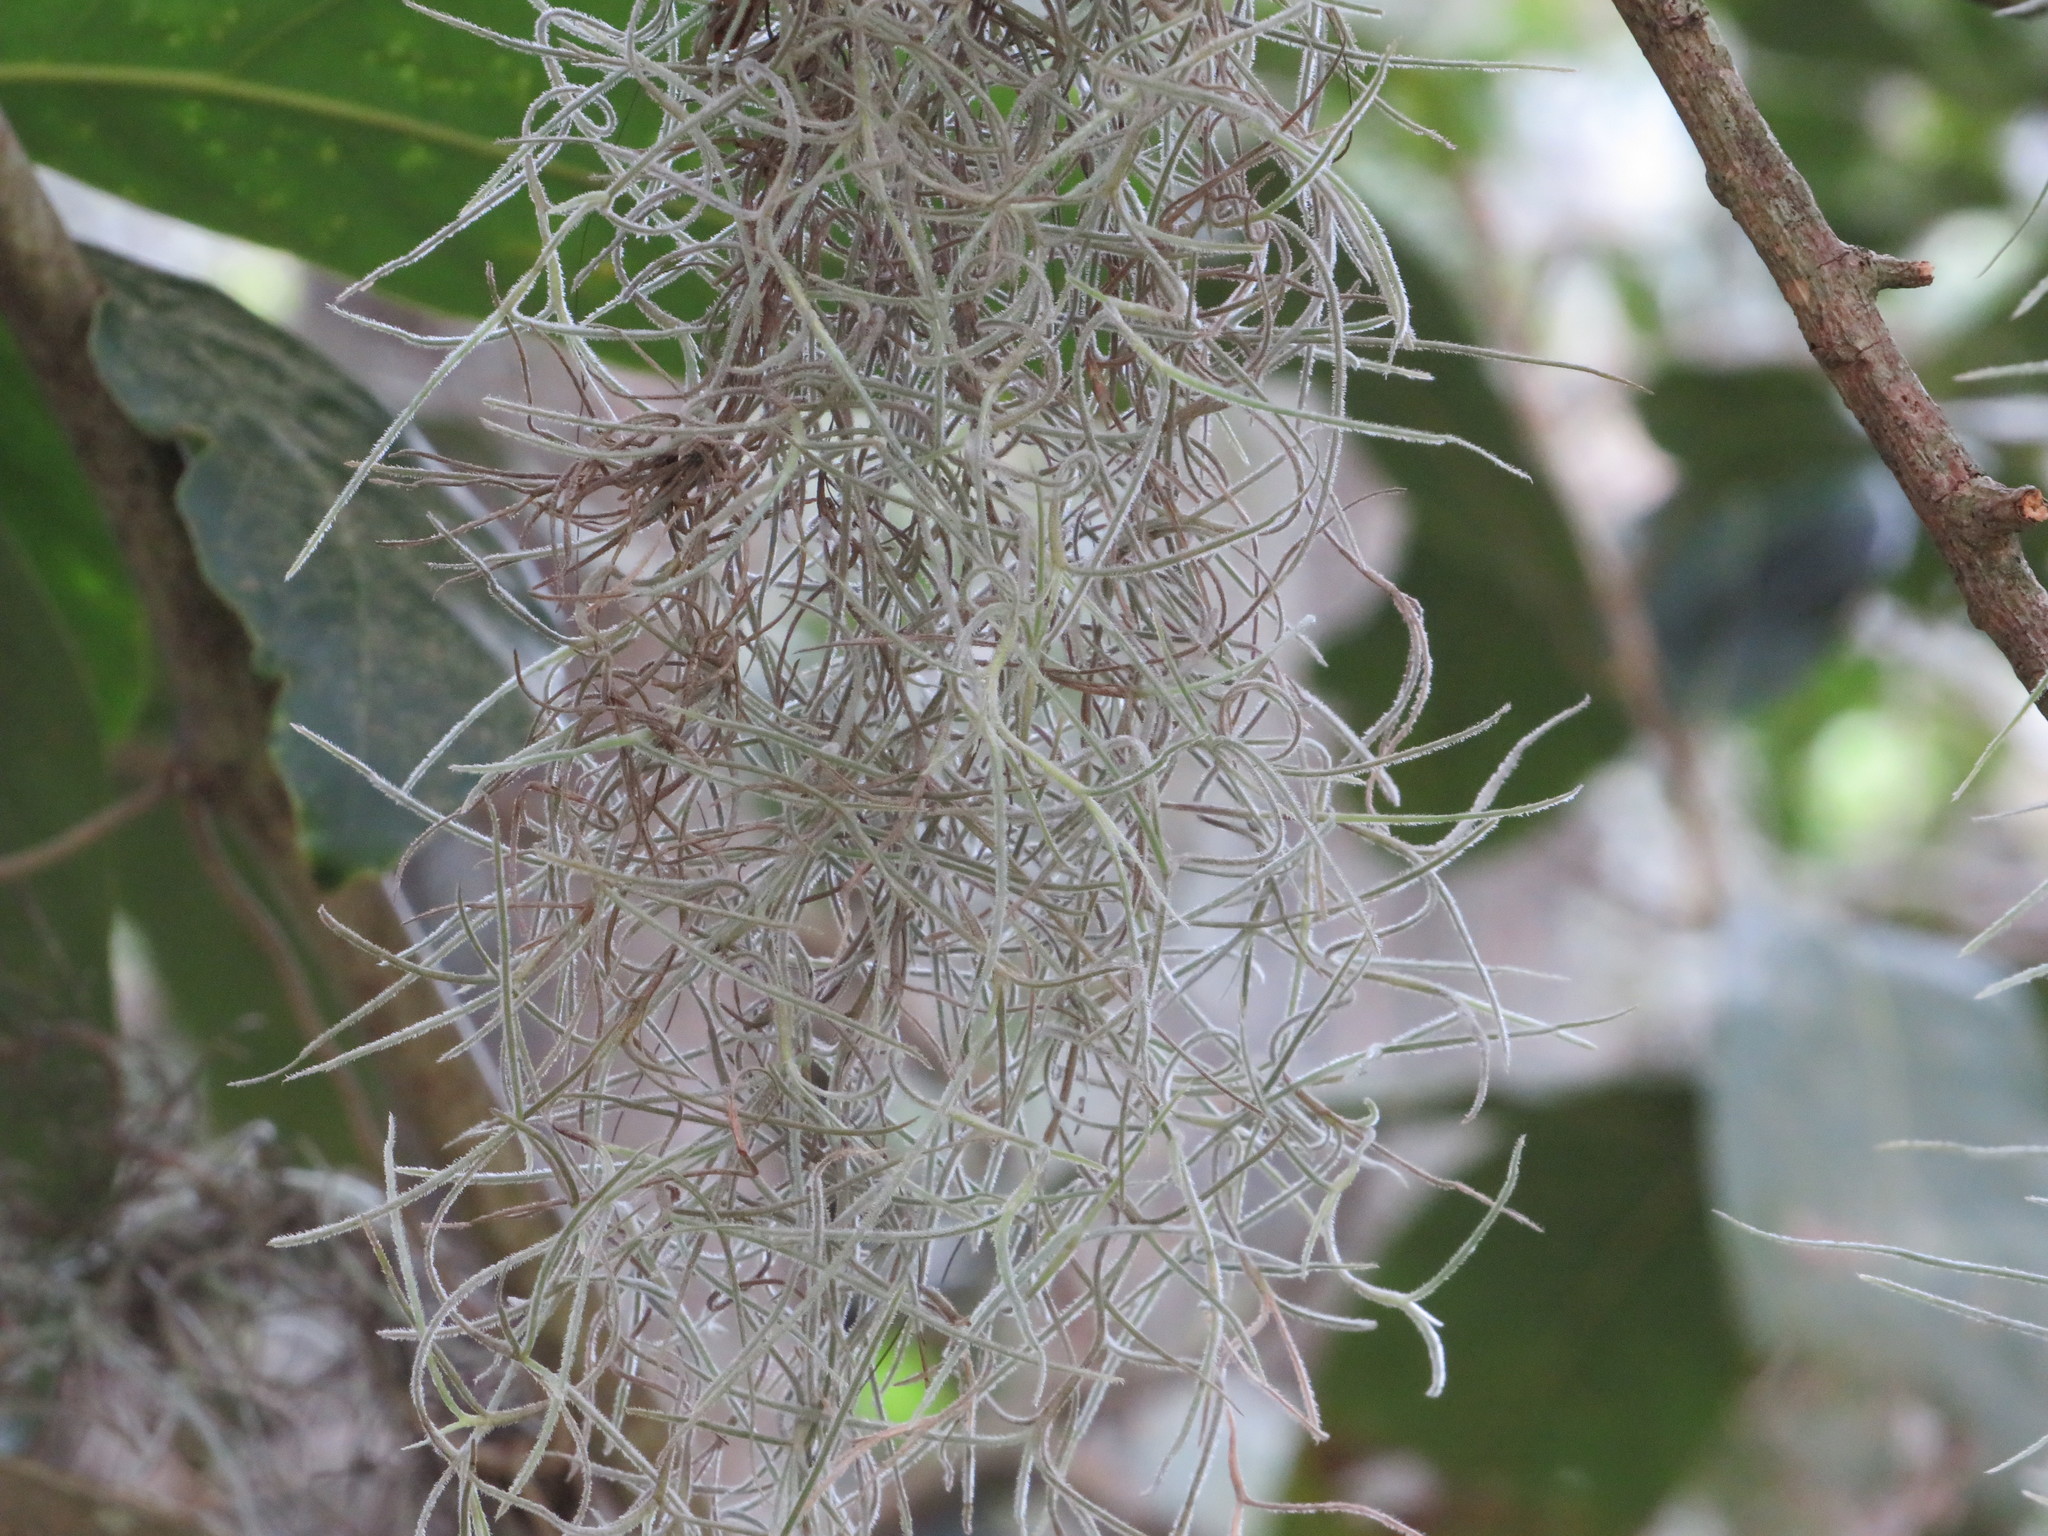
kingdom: Plantae
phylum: Tracheophyta
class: Liliopsida
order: Poales
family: Bromeliaceae
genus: Tillandsia
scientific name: Tillandsia usneoides
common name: Spanish moss
